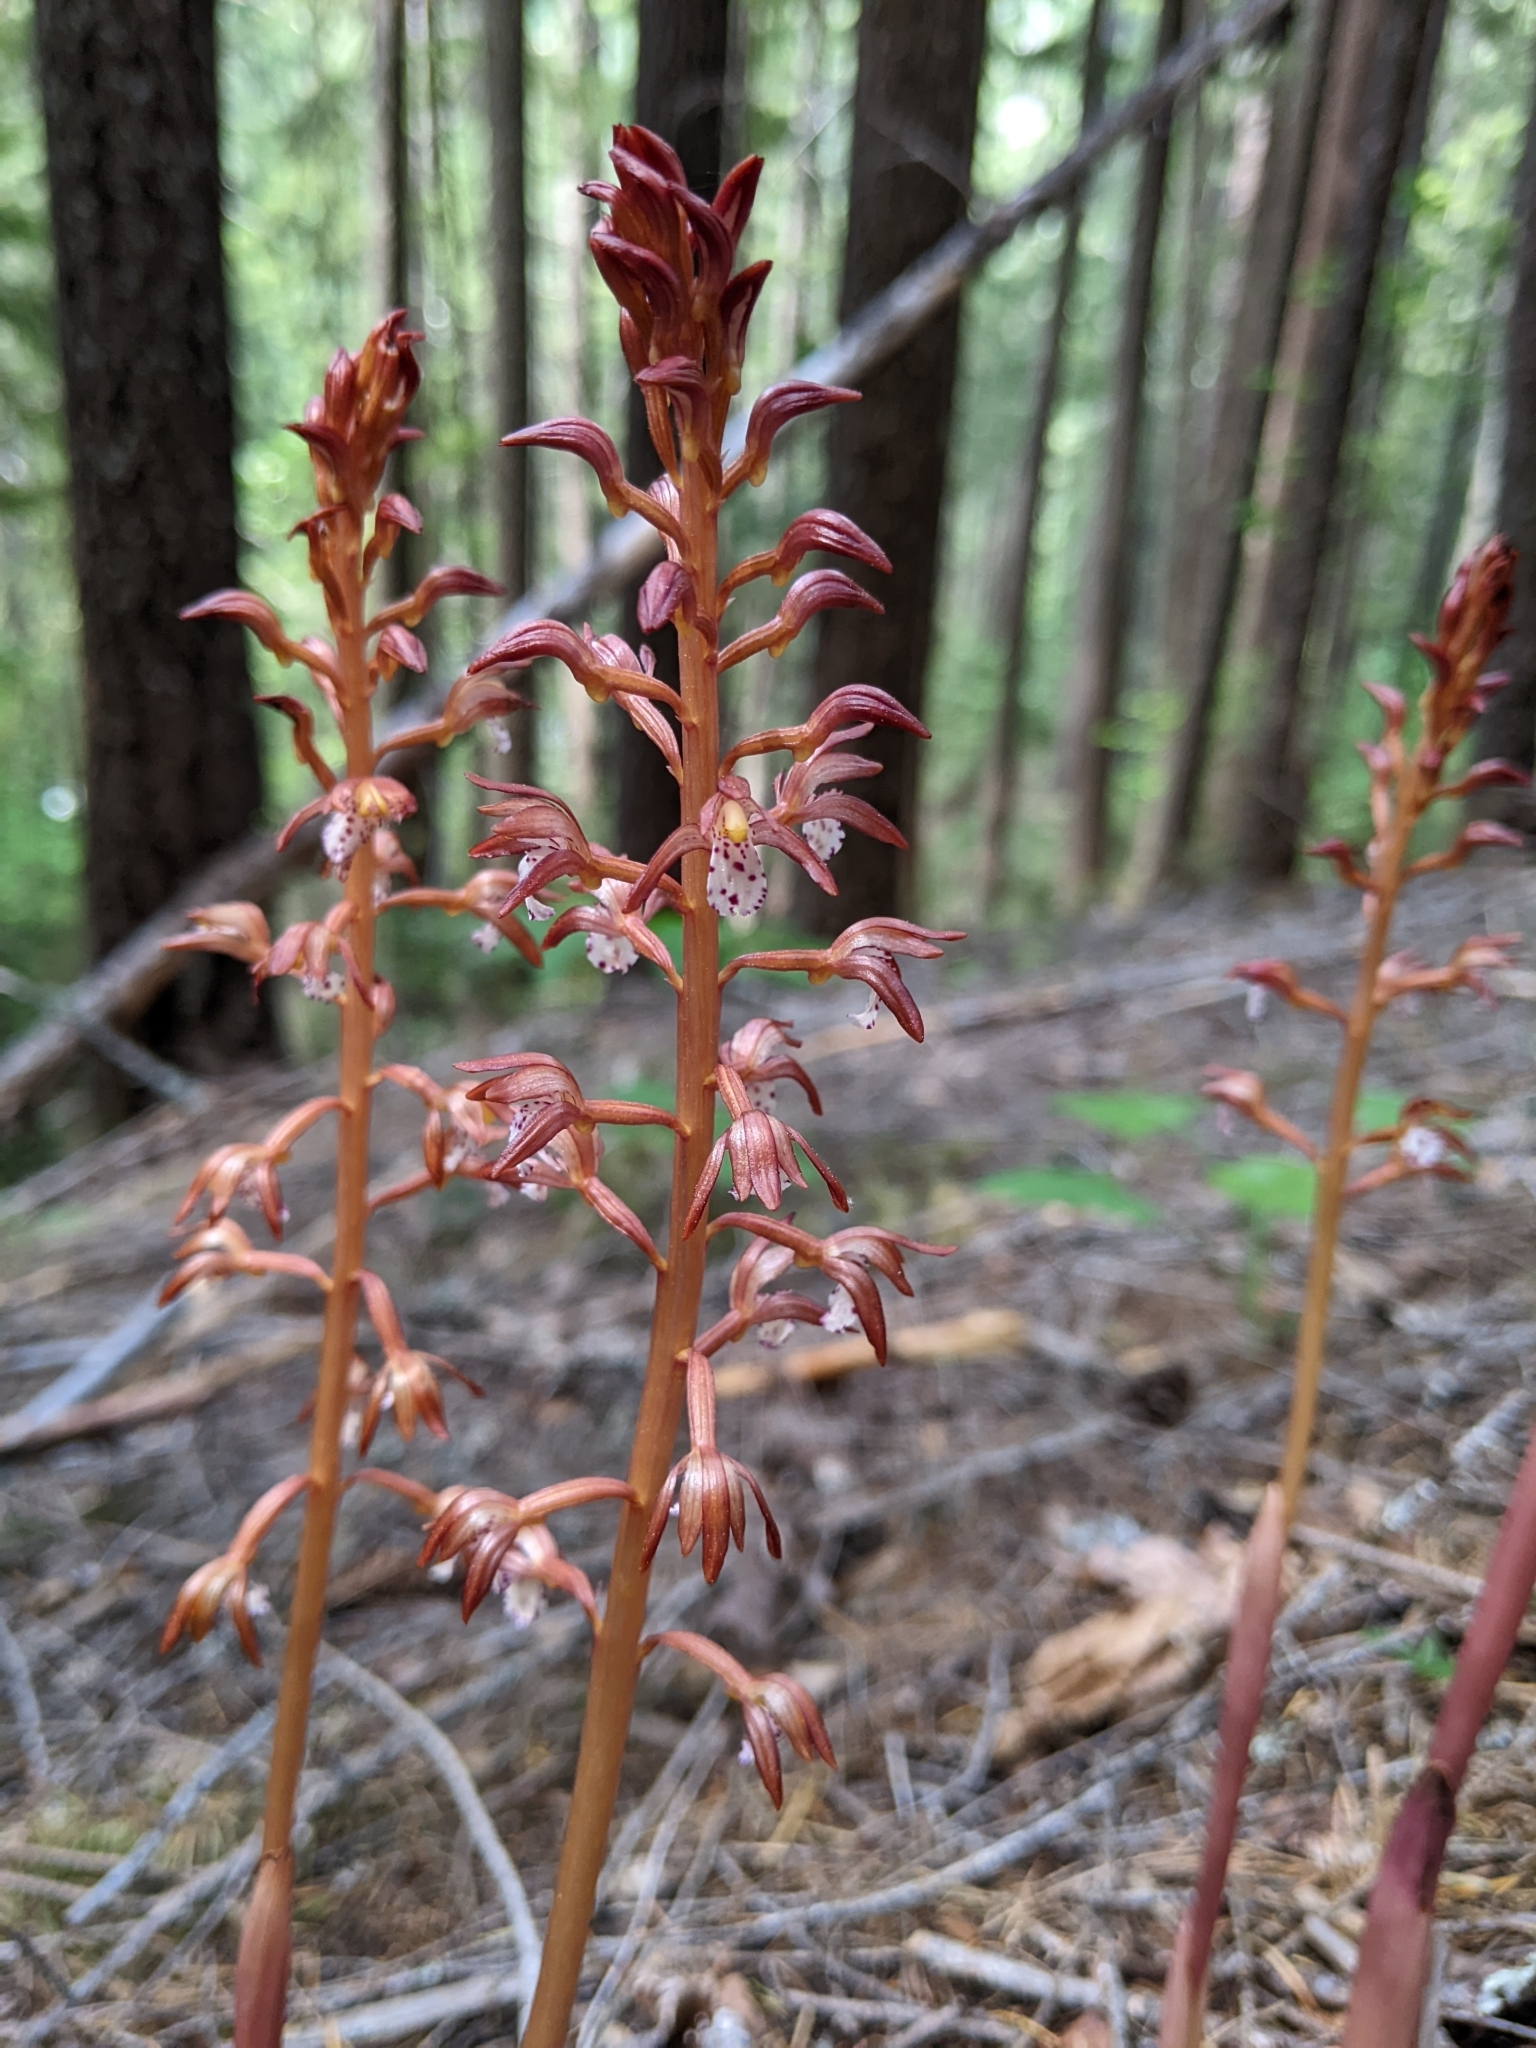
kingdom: Plantae
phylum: Tracheophyta
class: Liliopsida
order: Asparagales
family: Orchidaceae
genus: Corallorhiza
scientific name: Corallorhiza maculata
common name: Spotted coralroot
